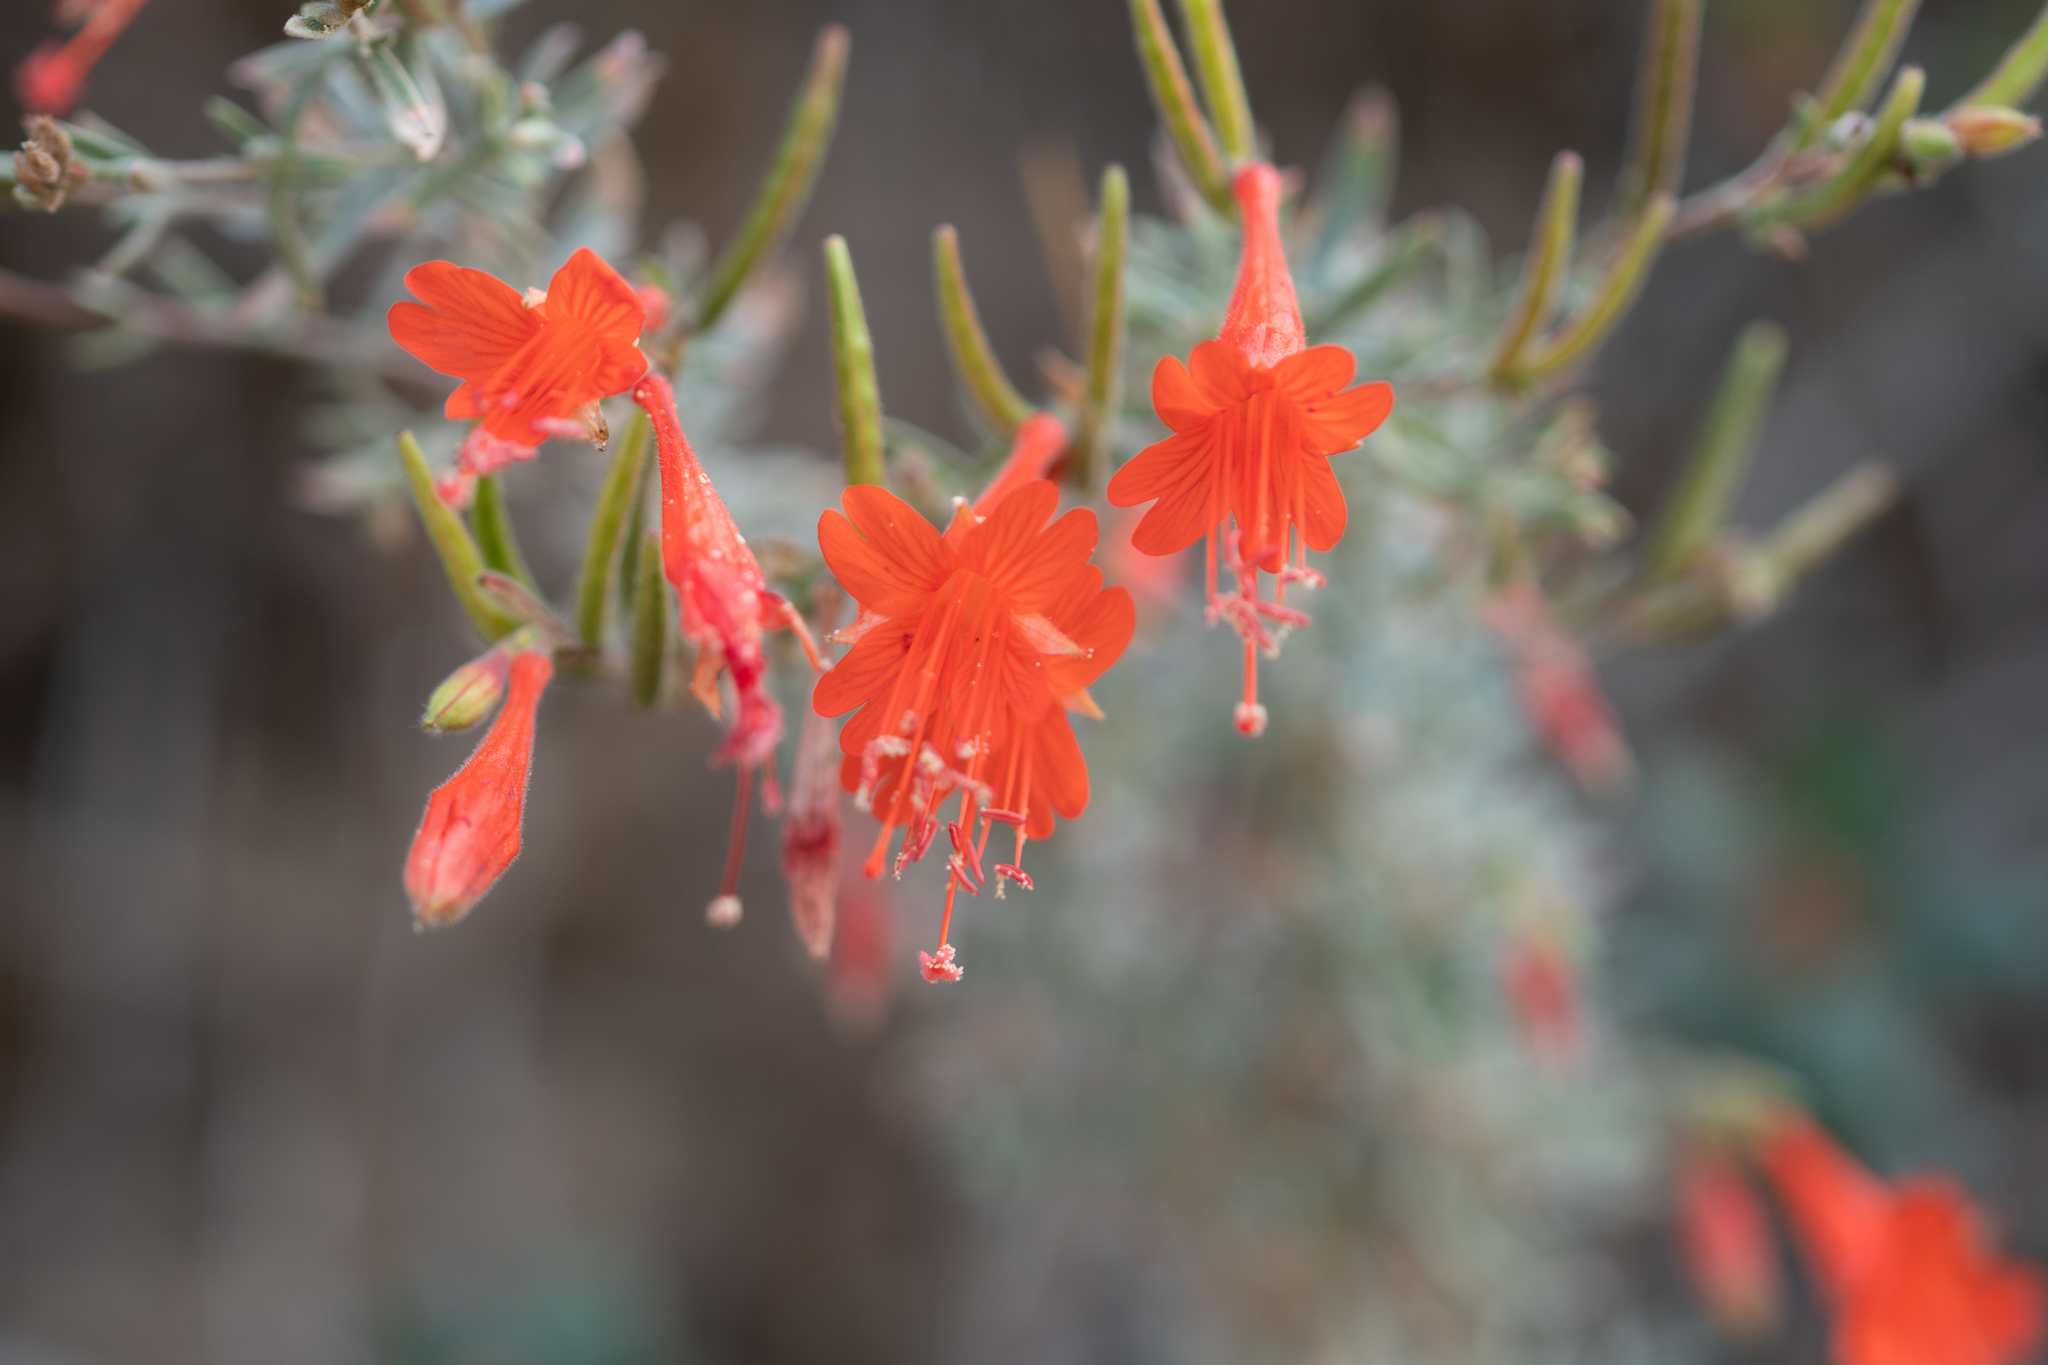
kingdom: Plantae
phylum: Tracheophyta
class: Magnoliopsida
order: Myrtales
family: Onagraceae
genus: Epilobium
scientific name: Epilobium canum
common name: California-fuchsia
